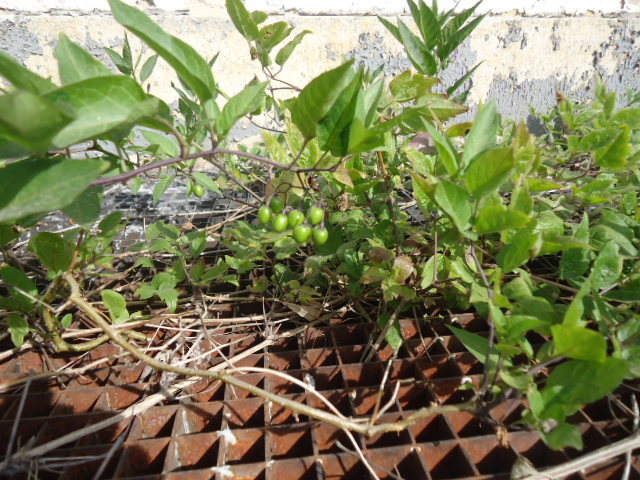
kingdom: Plantae
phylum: Tracheophyta
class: Magnoliopsida
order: Solanales
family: Solanaceae
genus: Solanum
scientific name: Solanum dulcamara
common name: Climbing nightshade
